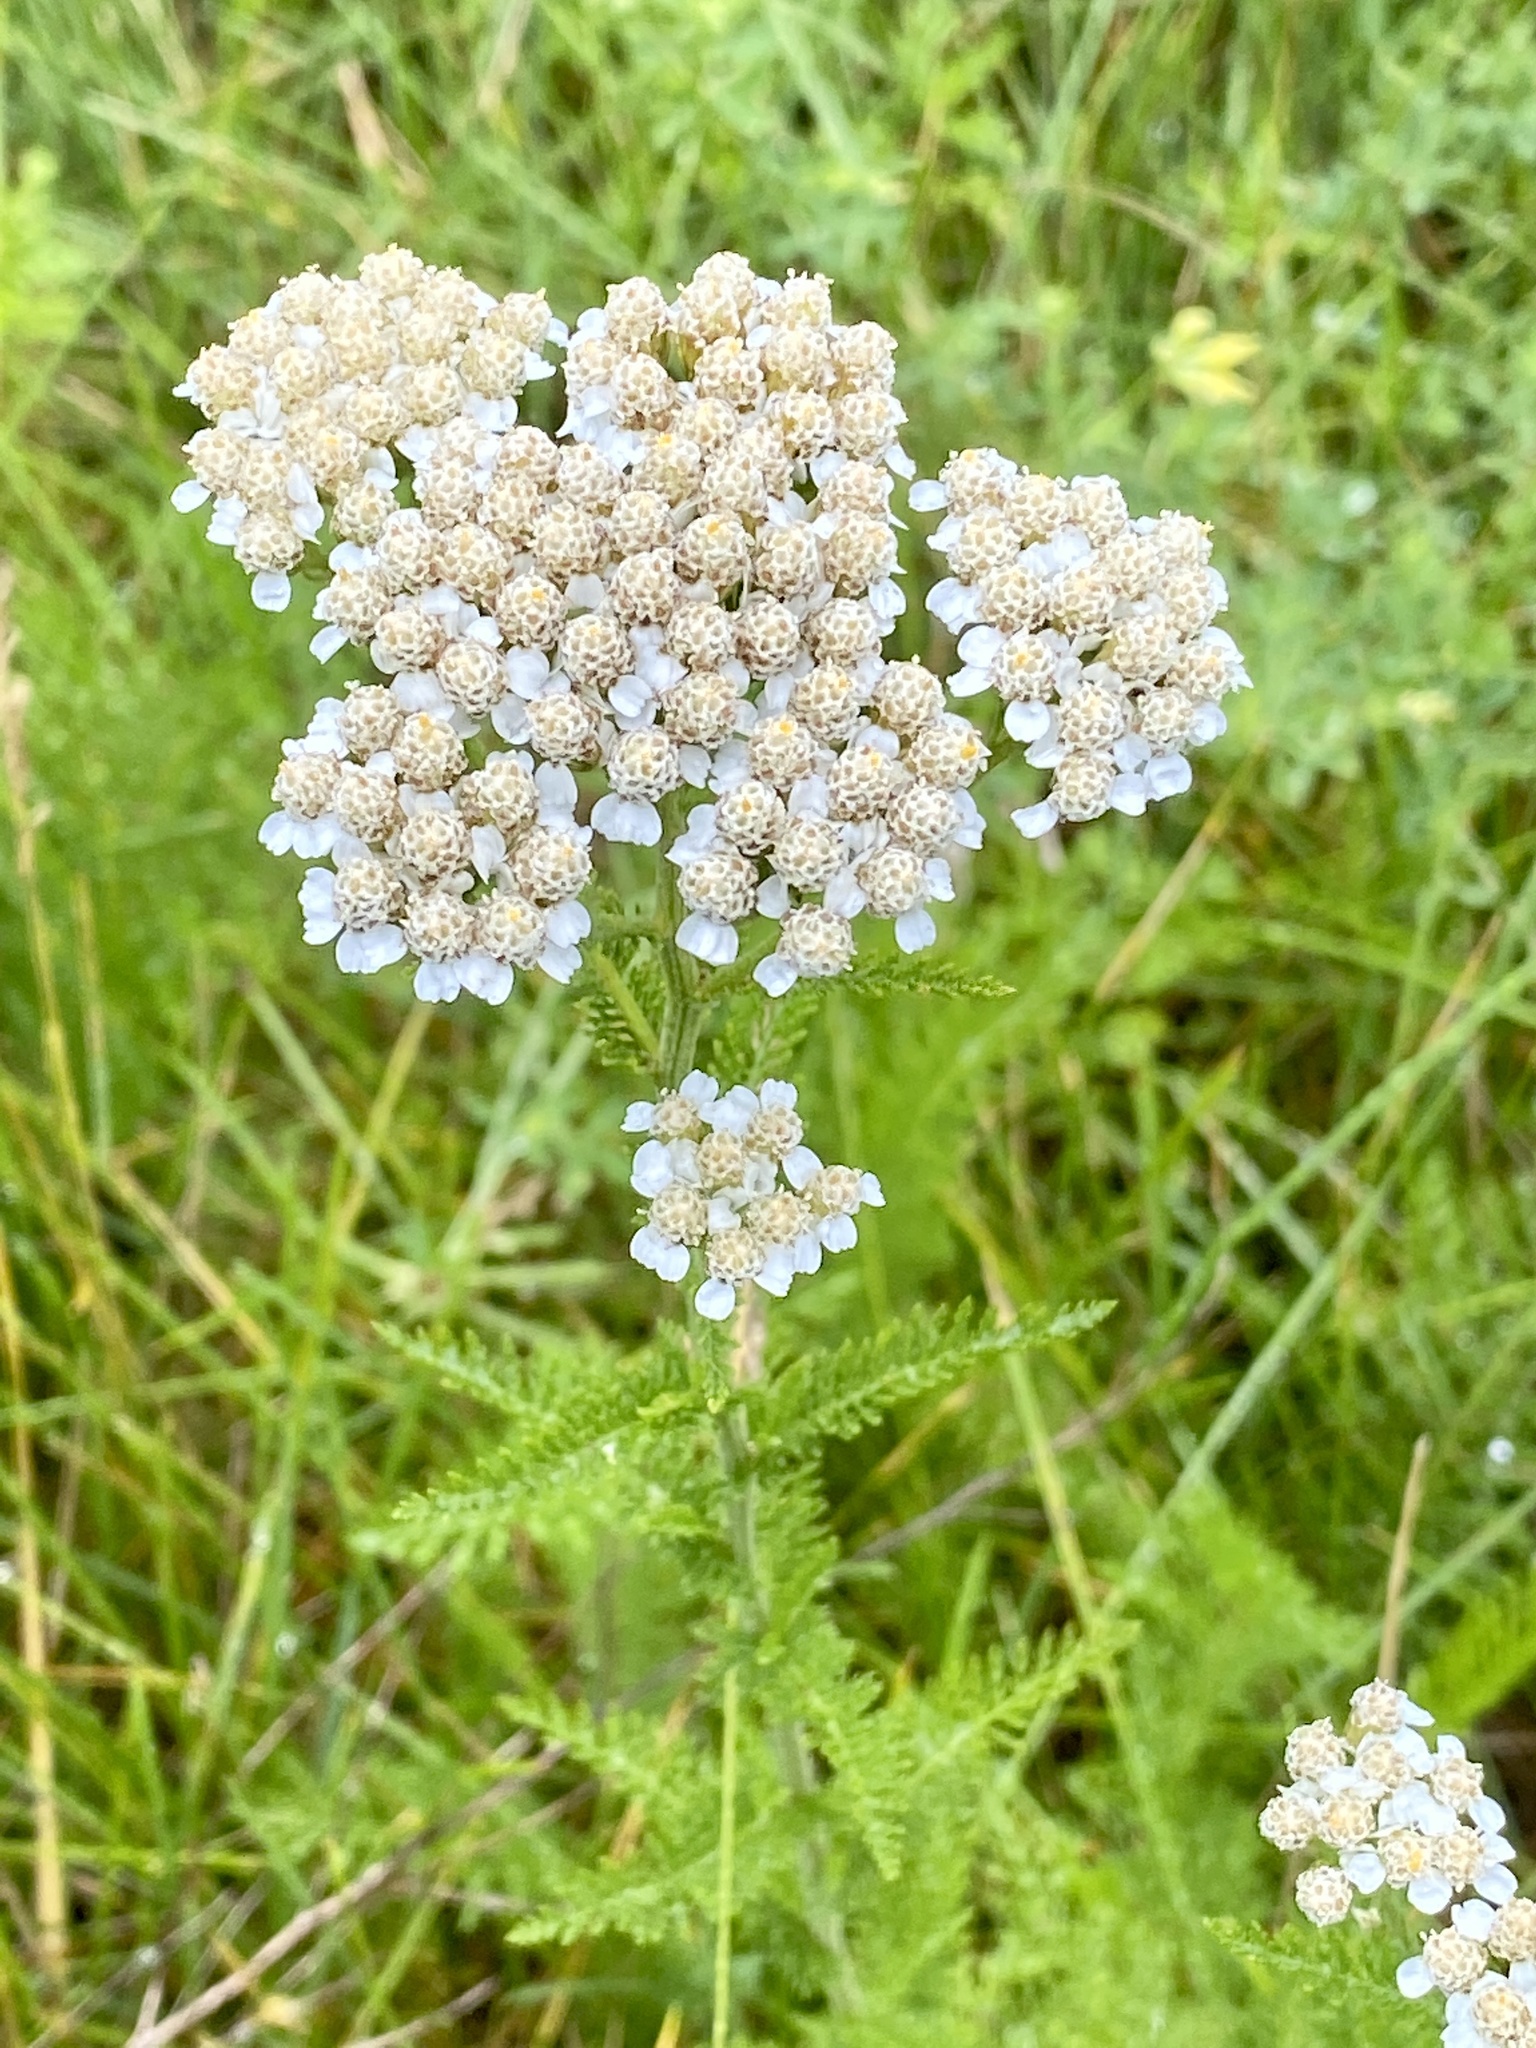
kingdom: Plantae
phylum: Tracheophyta
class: Magnoliopsida
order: Asterales
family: Asteraceae
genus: Achillea
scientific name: Achillea millefolium
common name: Yarrow
